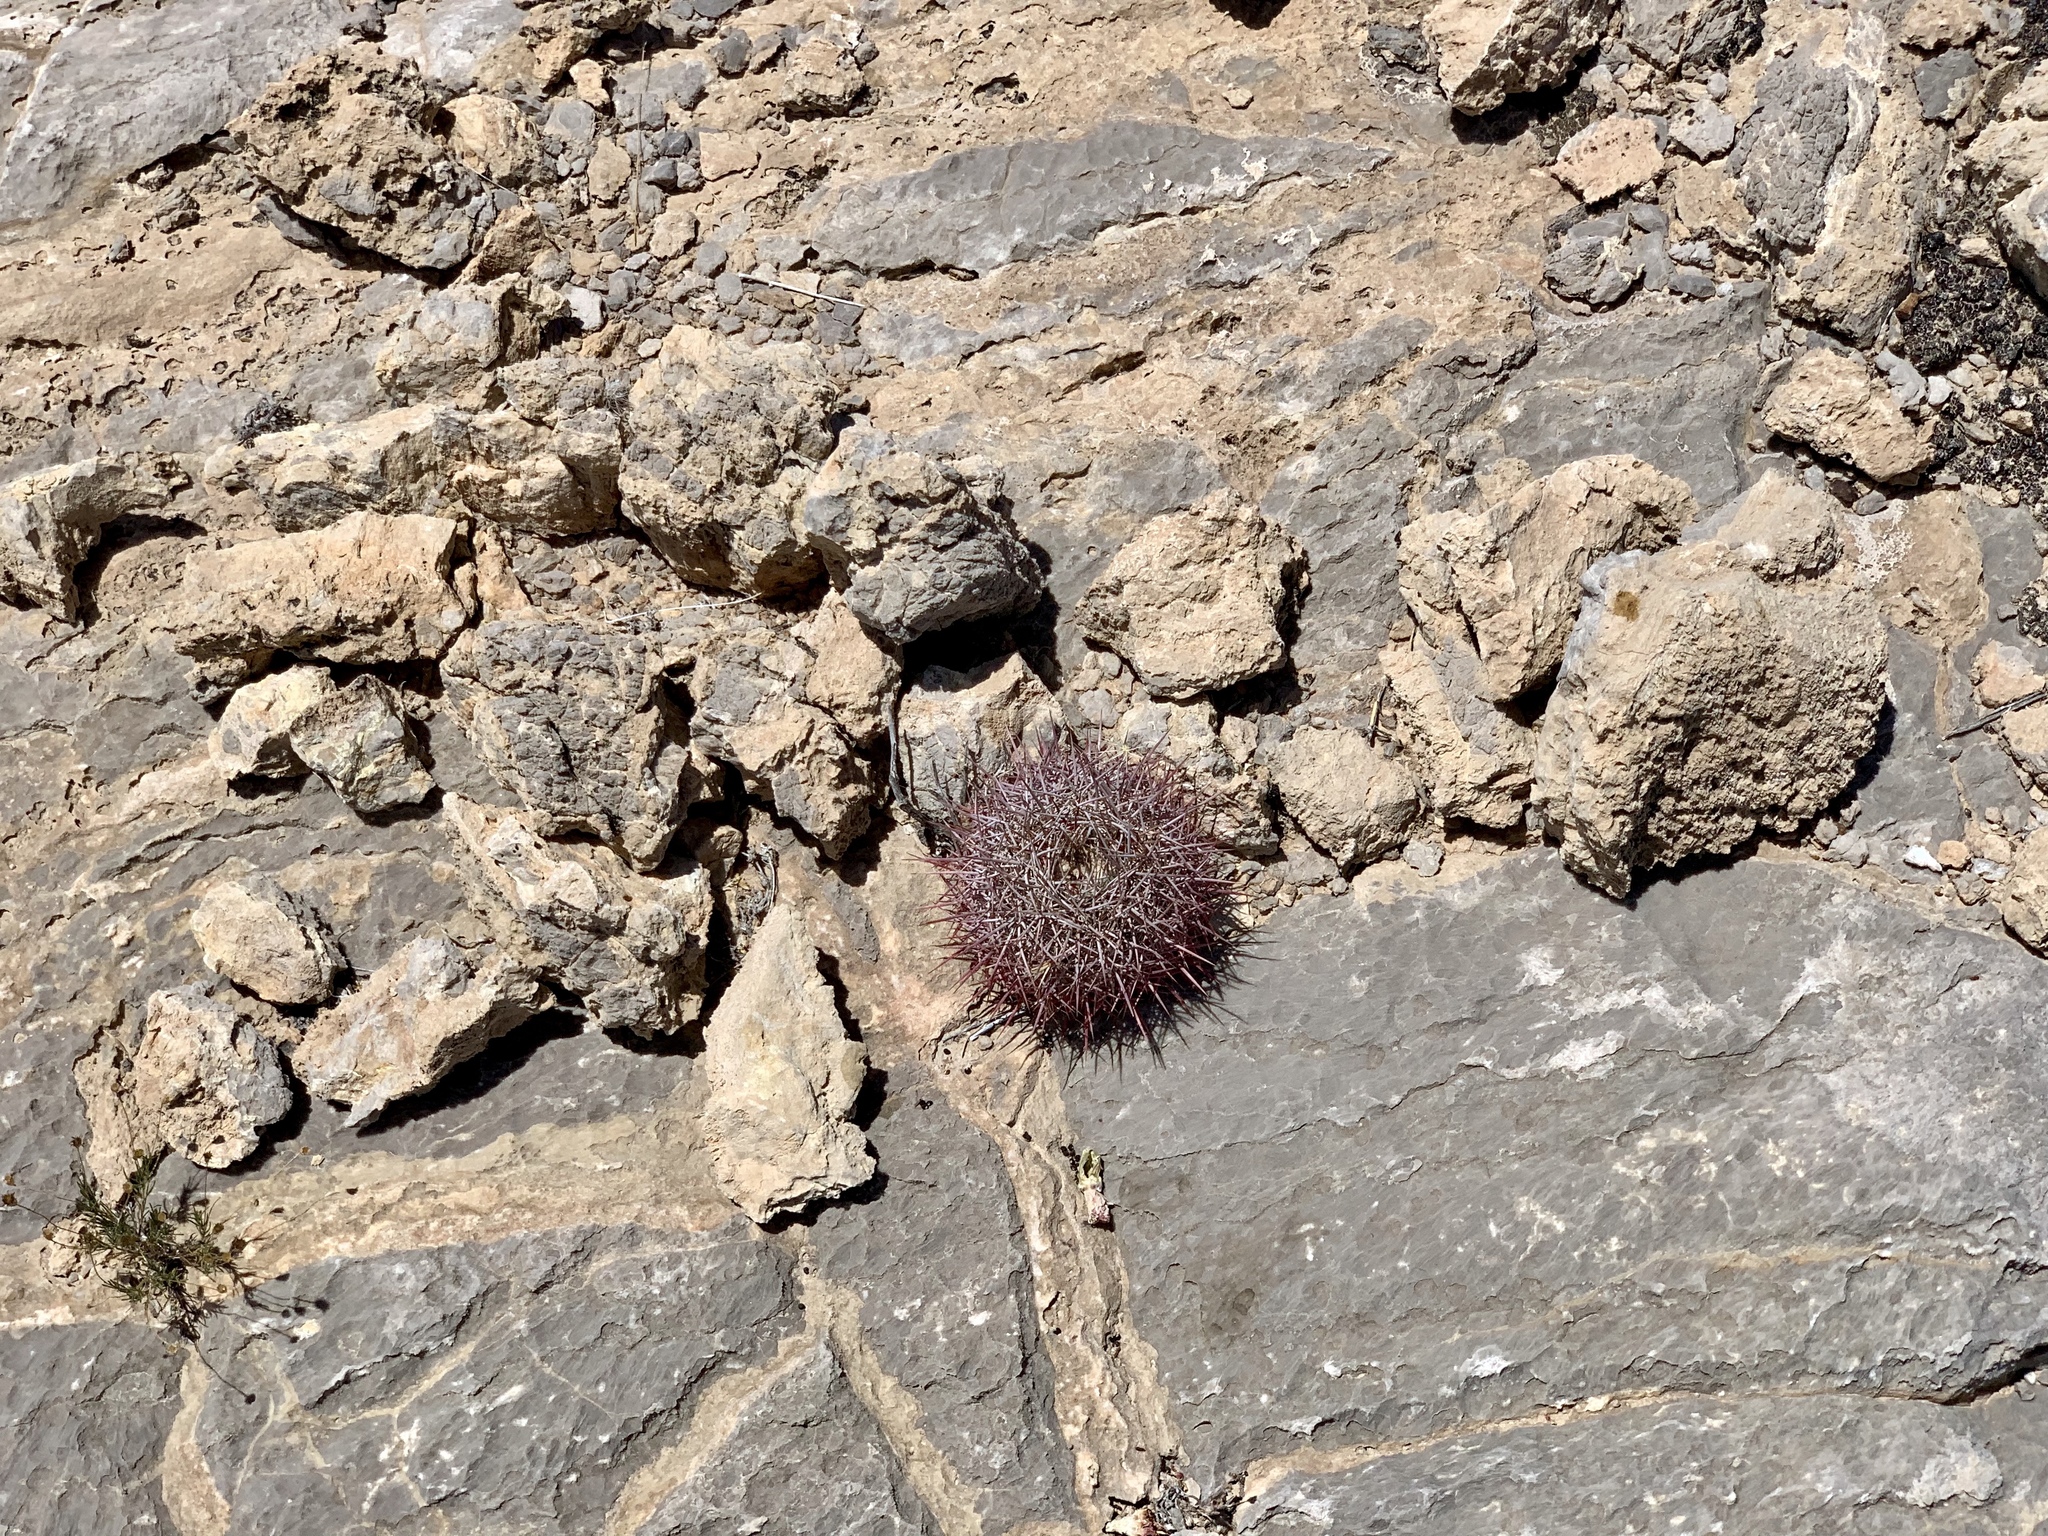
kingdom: Plantae
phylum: Tracheophyta
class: Magnoliopsida
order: Caryophyllales
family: Cactaceae
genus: Sclerocactus
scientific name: Sclerocactus johnsonii
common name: Eight-spine fishhook cactus
